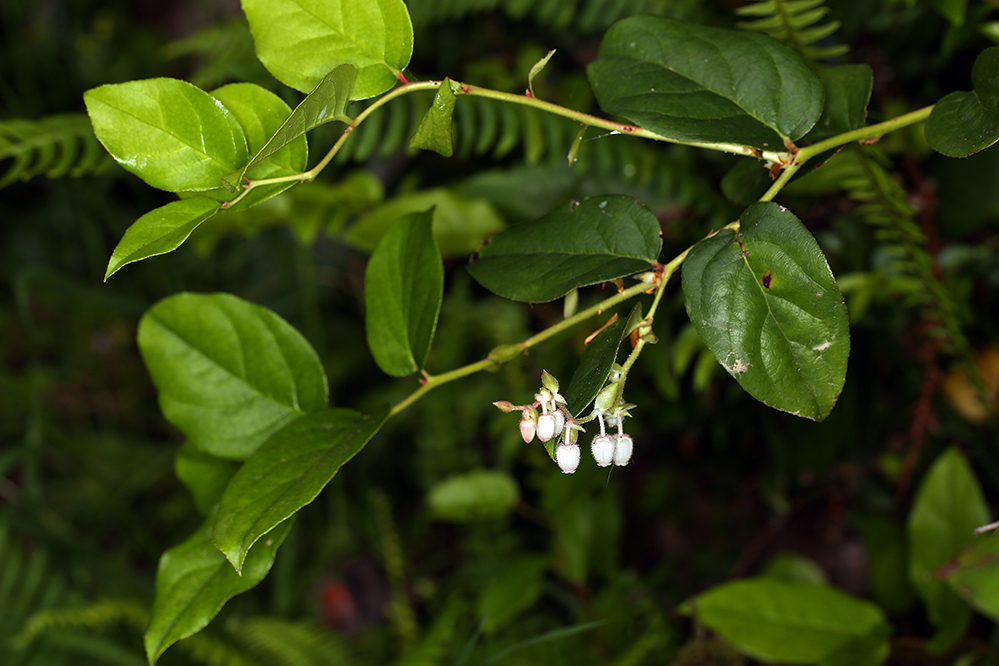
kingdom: Plantae
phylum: Tracheophyta
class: Magnoliopsida
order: Ericales
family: Ericaceae
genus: Gaultheria
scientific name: Gaultheria shallon
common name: Shallon
